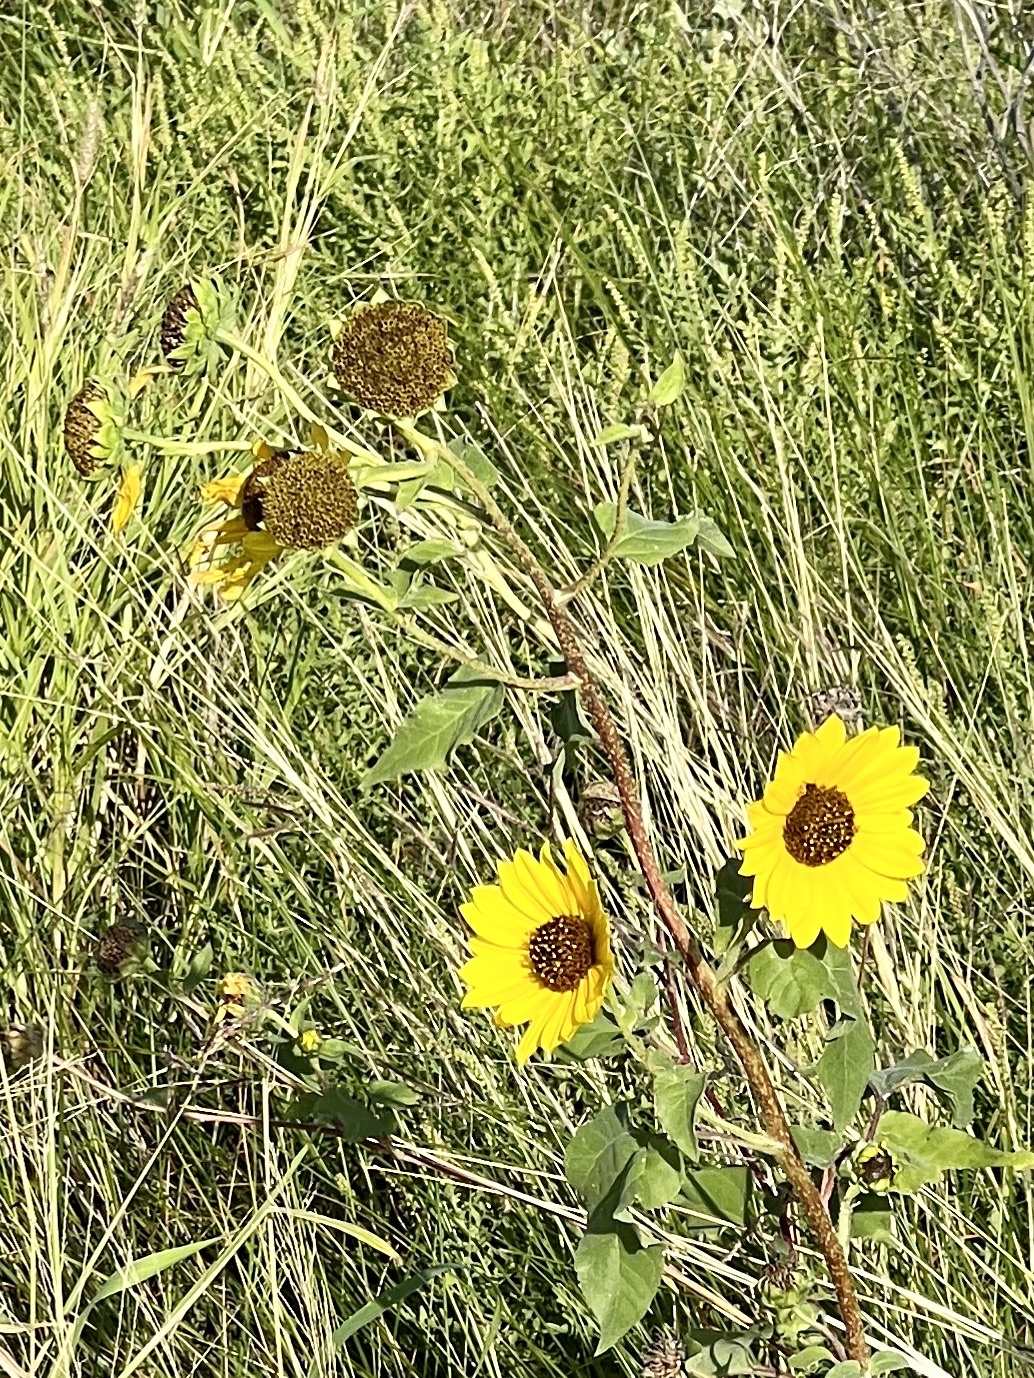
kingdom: Plantae
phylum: Tracheophyta
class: Magnoliopsida
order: Asterales
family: Asteraceae
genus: Helianthus
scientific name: Helianthus annuus
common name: Sunflower
